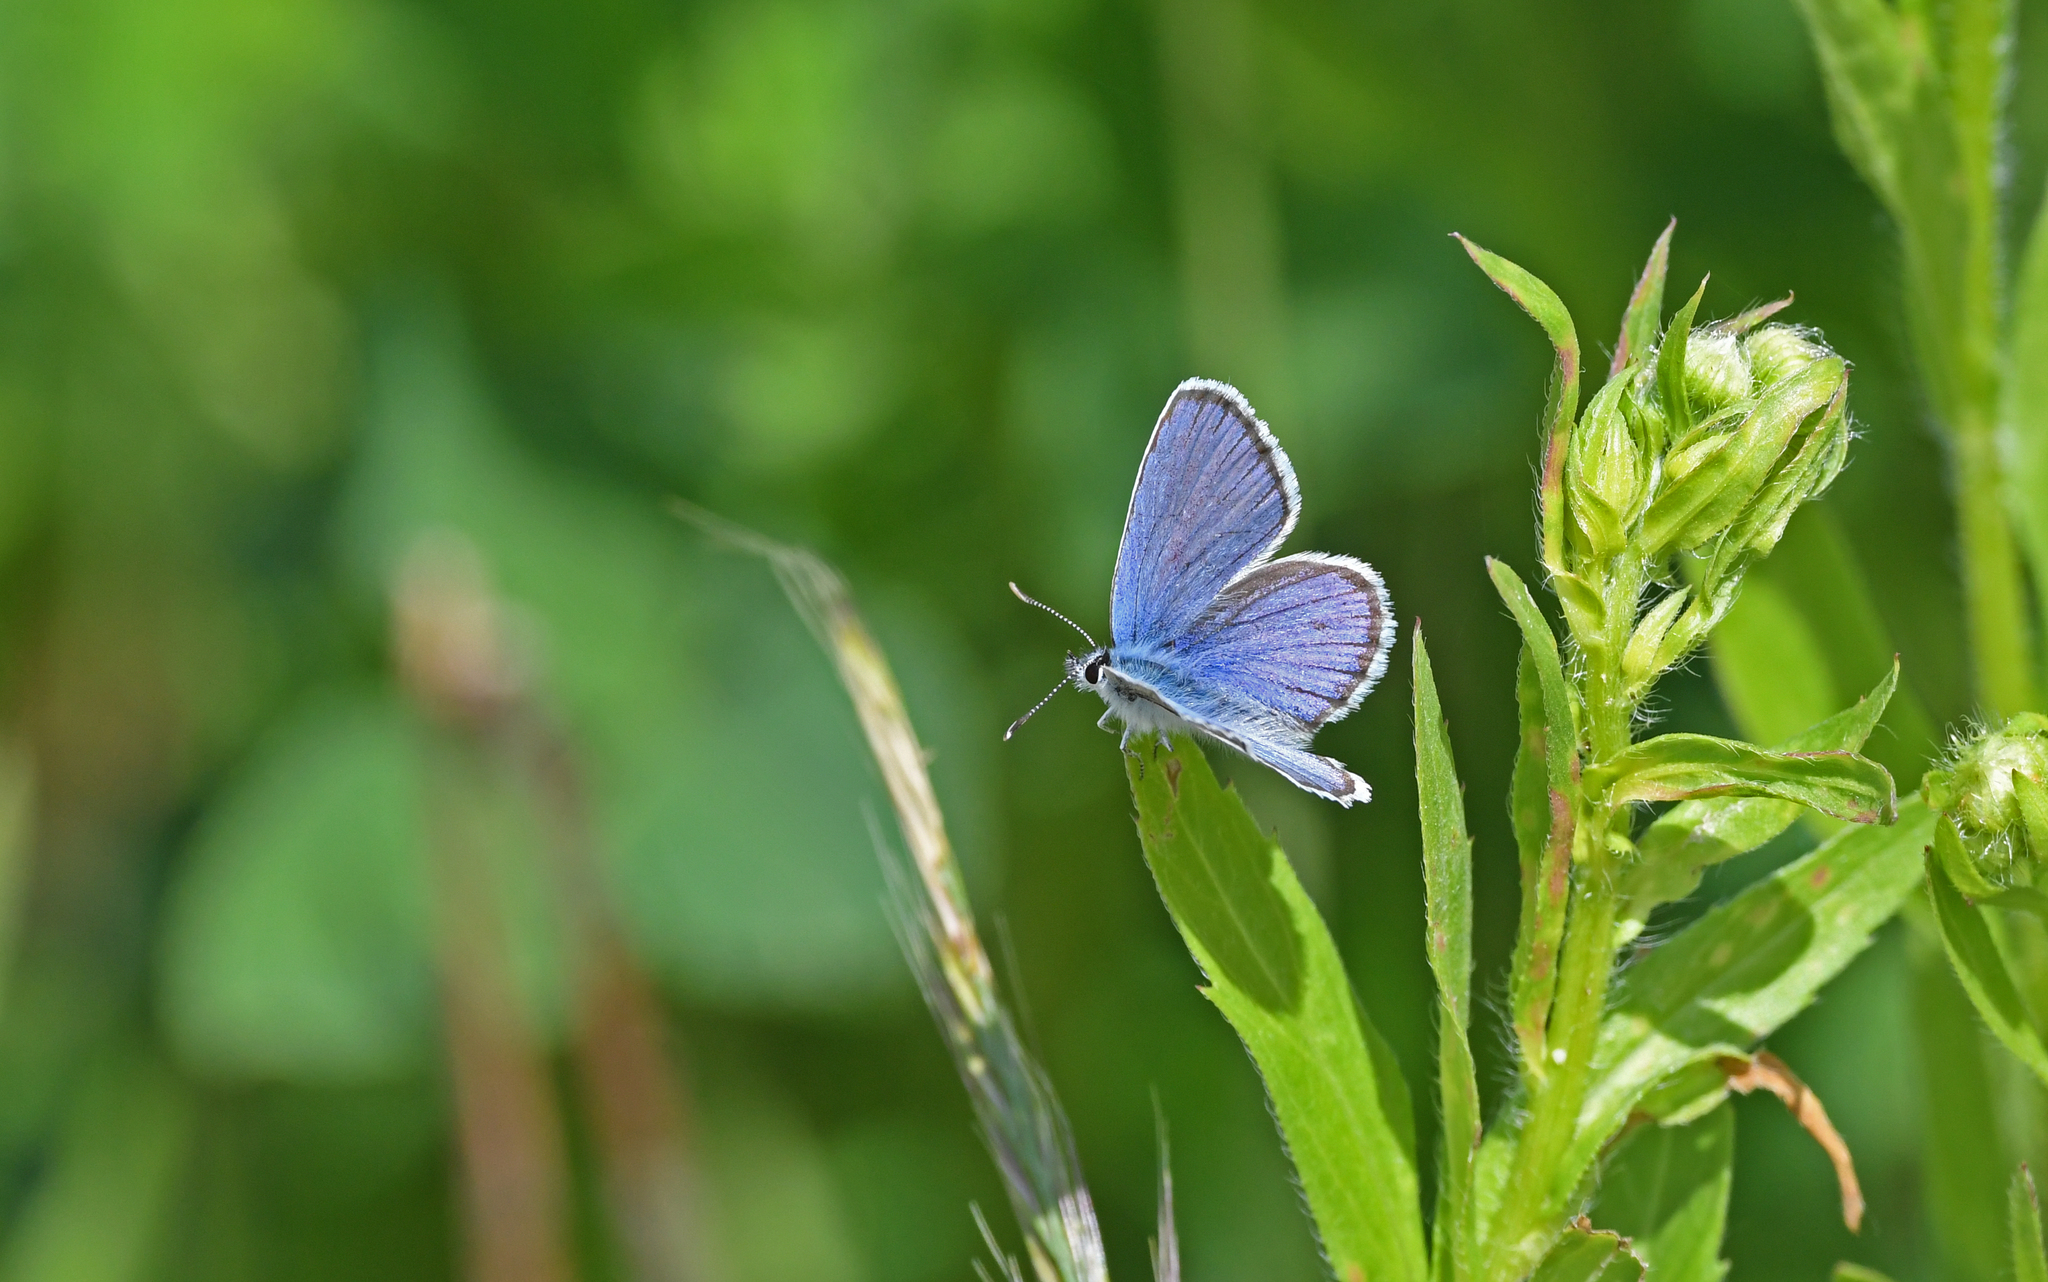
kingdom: Animalia
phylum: Arthropoda
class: Insecta
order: Lepidoptera
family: Lycaenidae
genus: Lycaeides
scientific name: Lycaeides idas
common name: Northern blue
